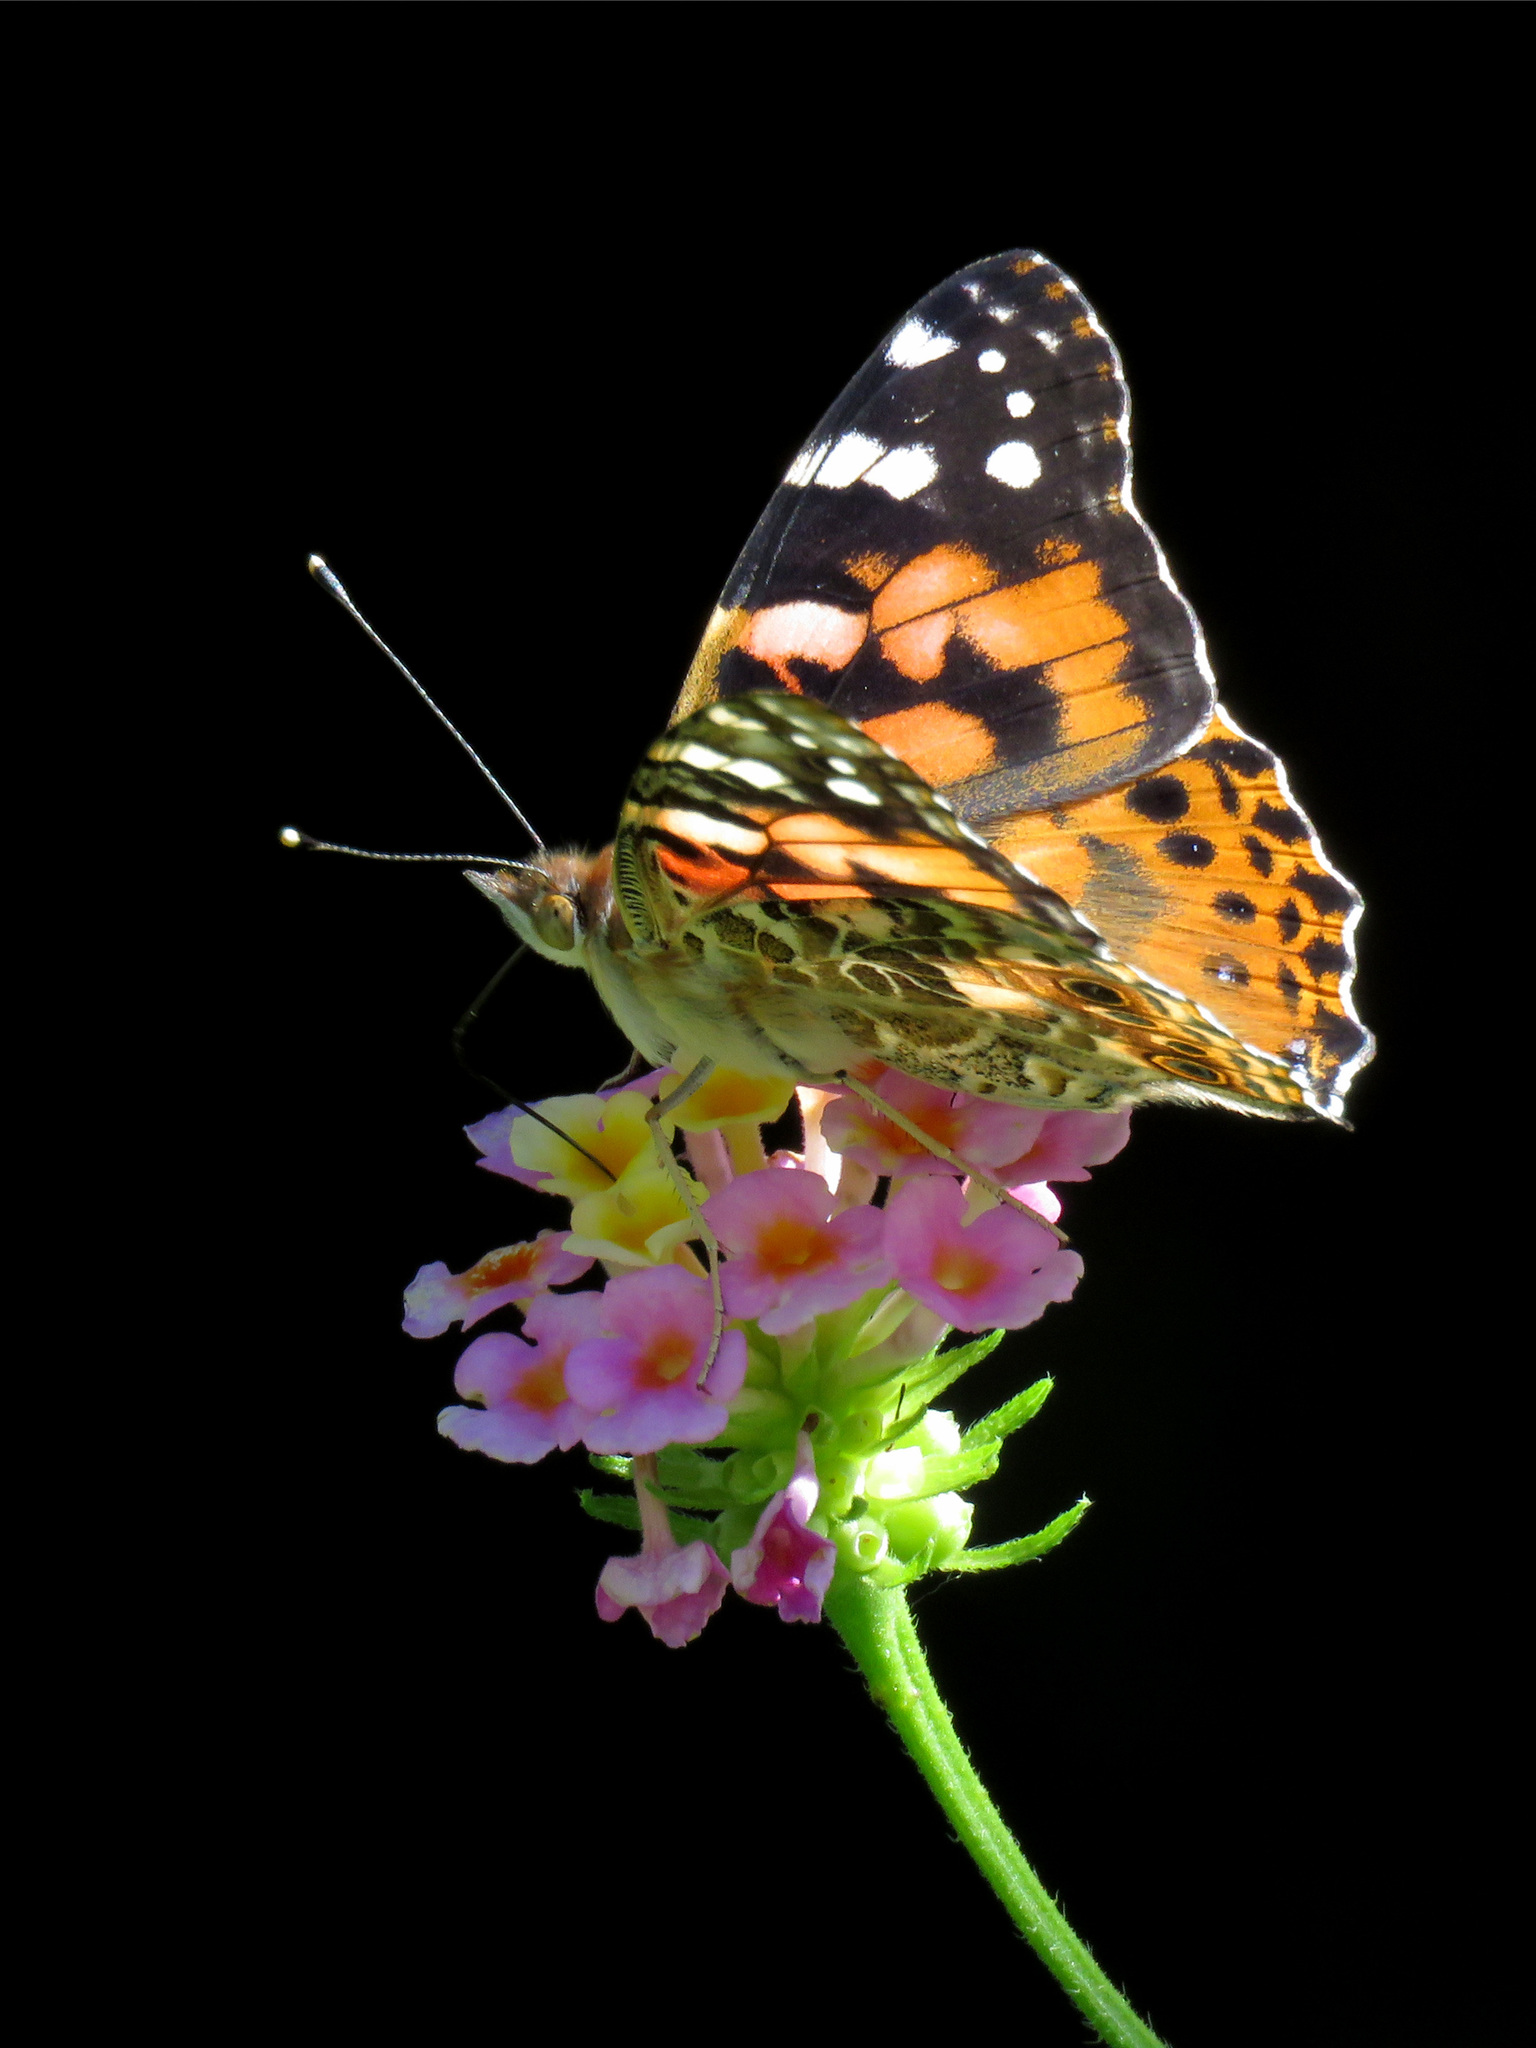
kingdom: Animalia
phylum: Arthropoda
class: Insecta
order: Lepidoptera
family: Nymphalidae
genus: Vanessa
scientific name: Vanessa cardui
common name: Painted lady
